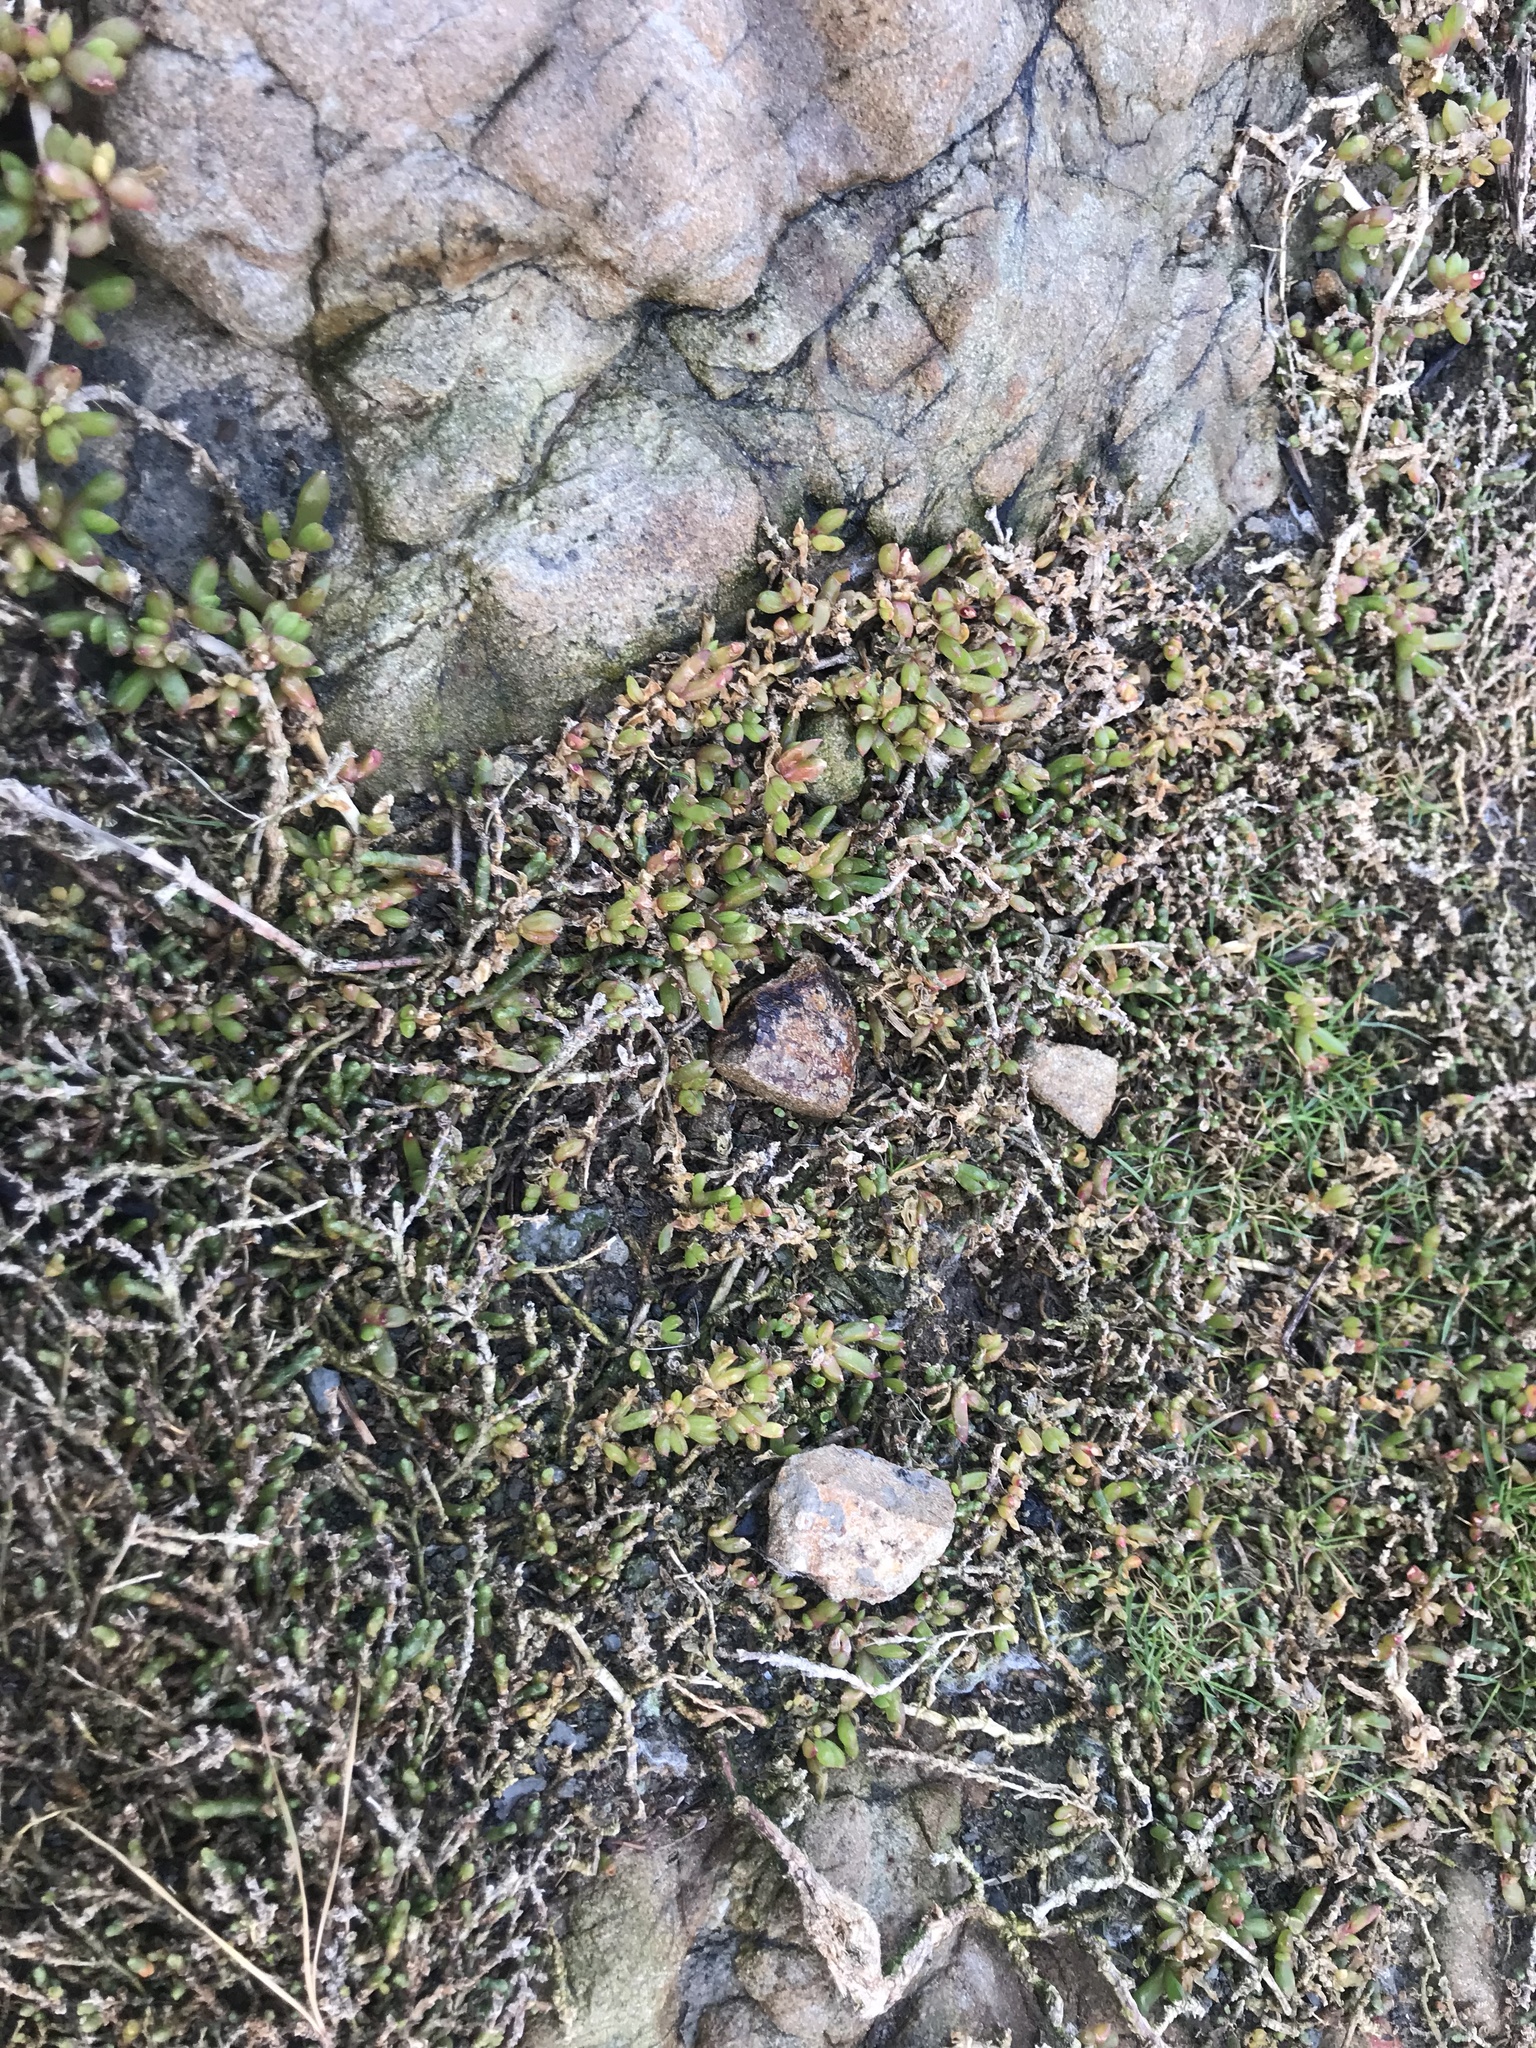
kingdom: Plantae
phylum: Tracheophyta
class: Magnoliopsida
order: Caryophyllales
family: Aizoaceae
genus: Disphyma
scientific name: Disphyma australe
